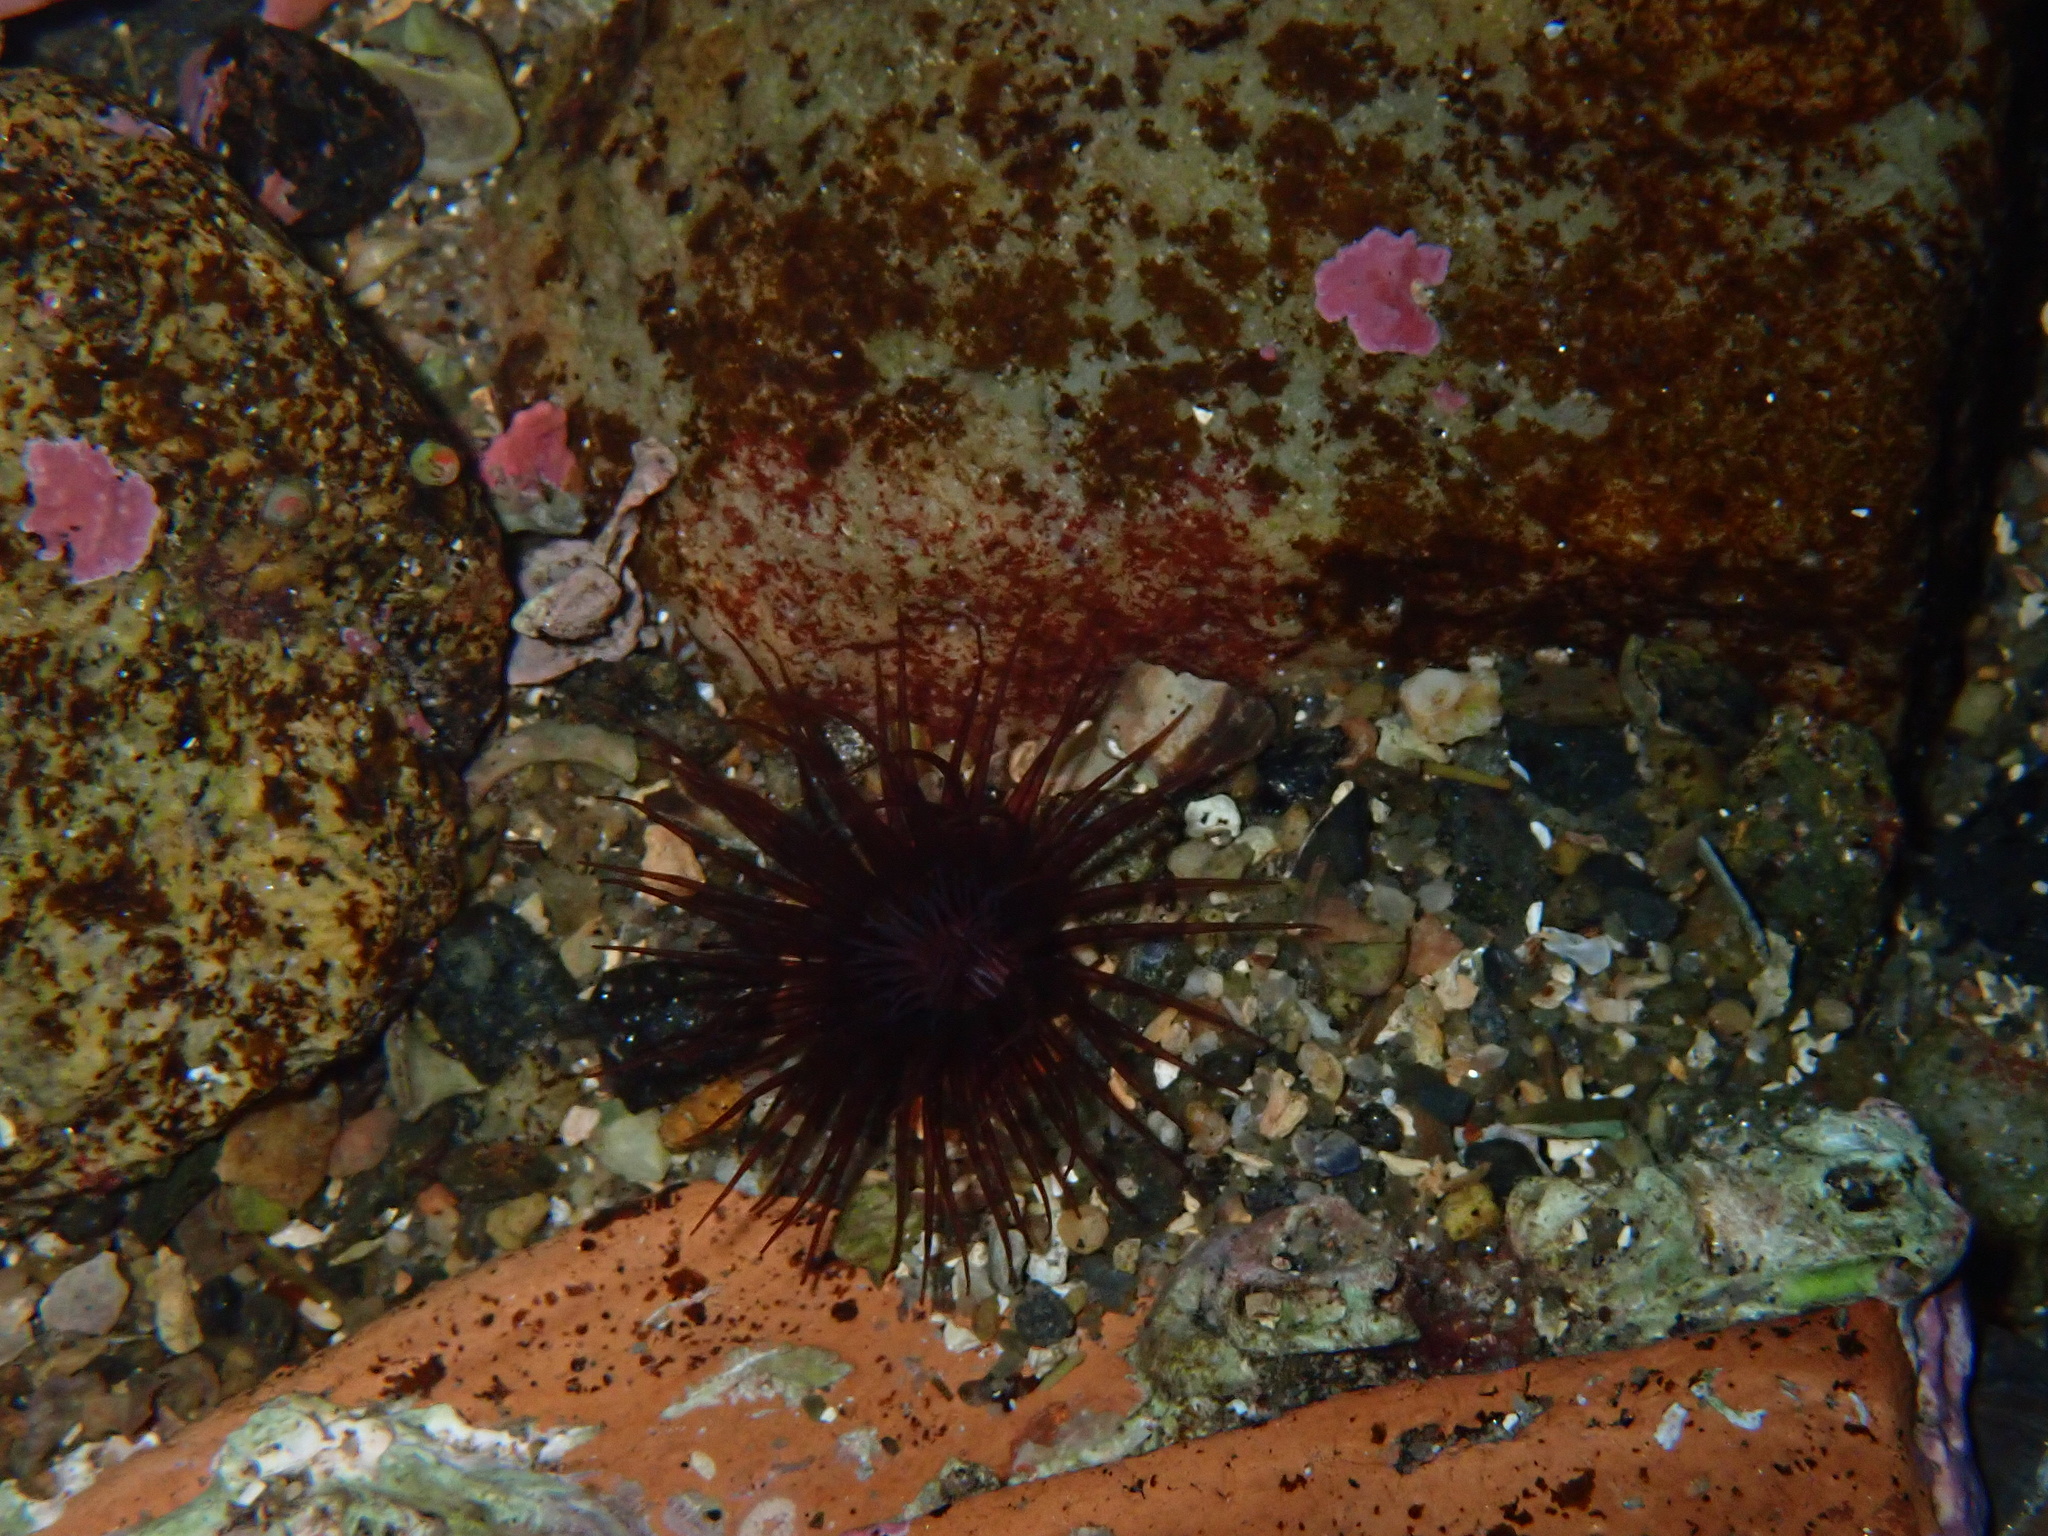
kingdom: Animalia
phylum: Cnidaria
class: Anthozoa
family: Cerianthidae
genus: Synarachnactis
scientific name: Synarachnactis
